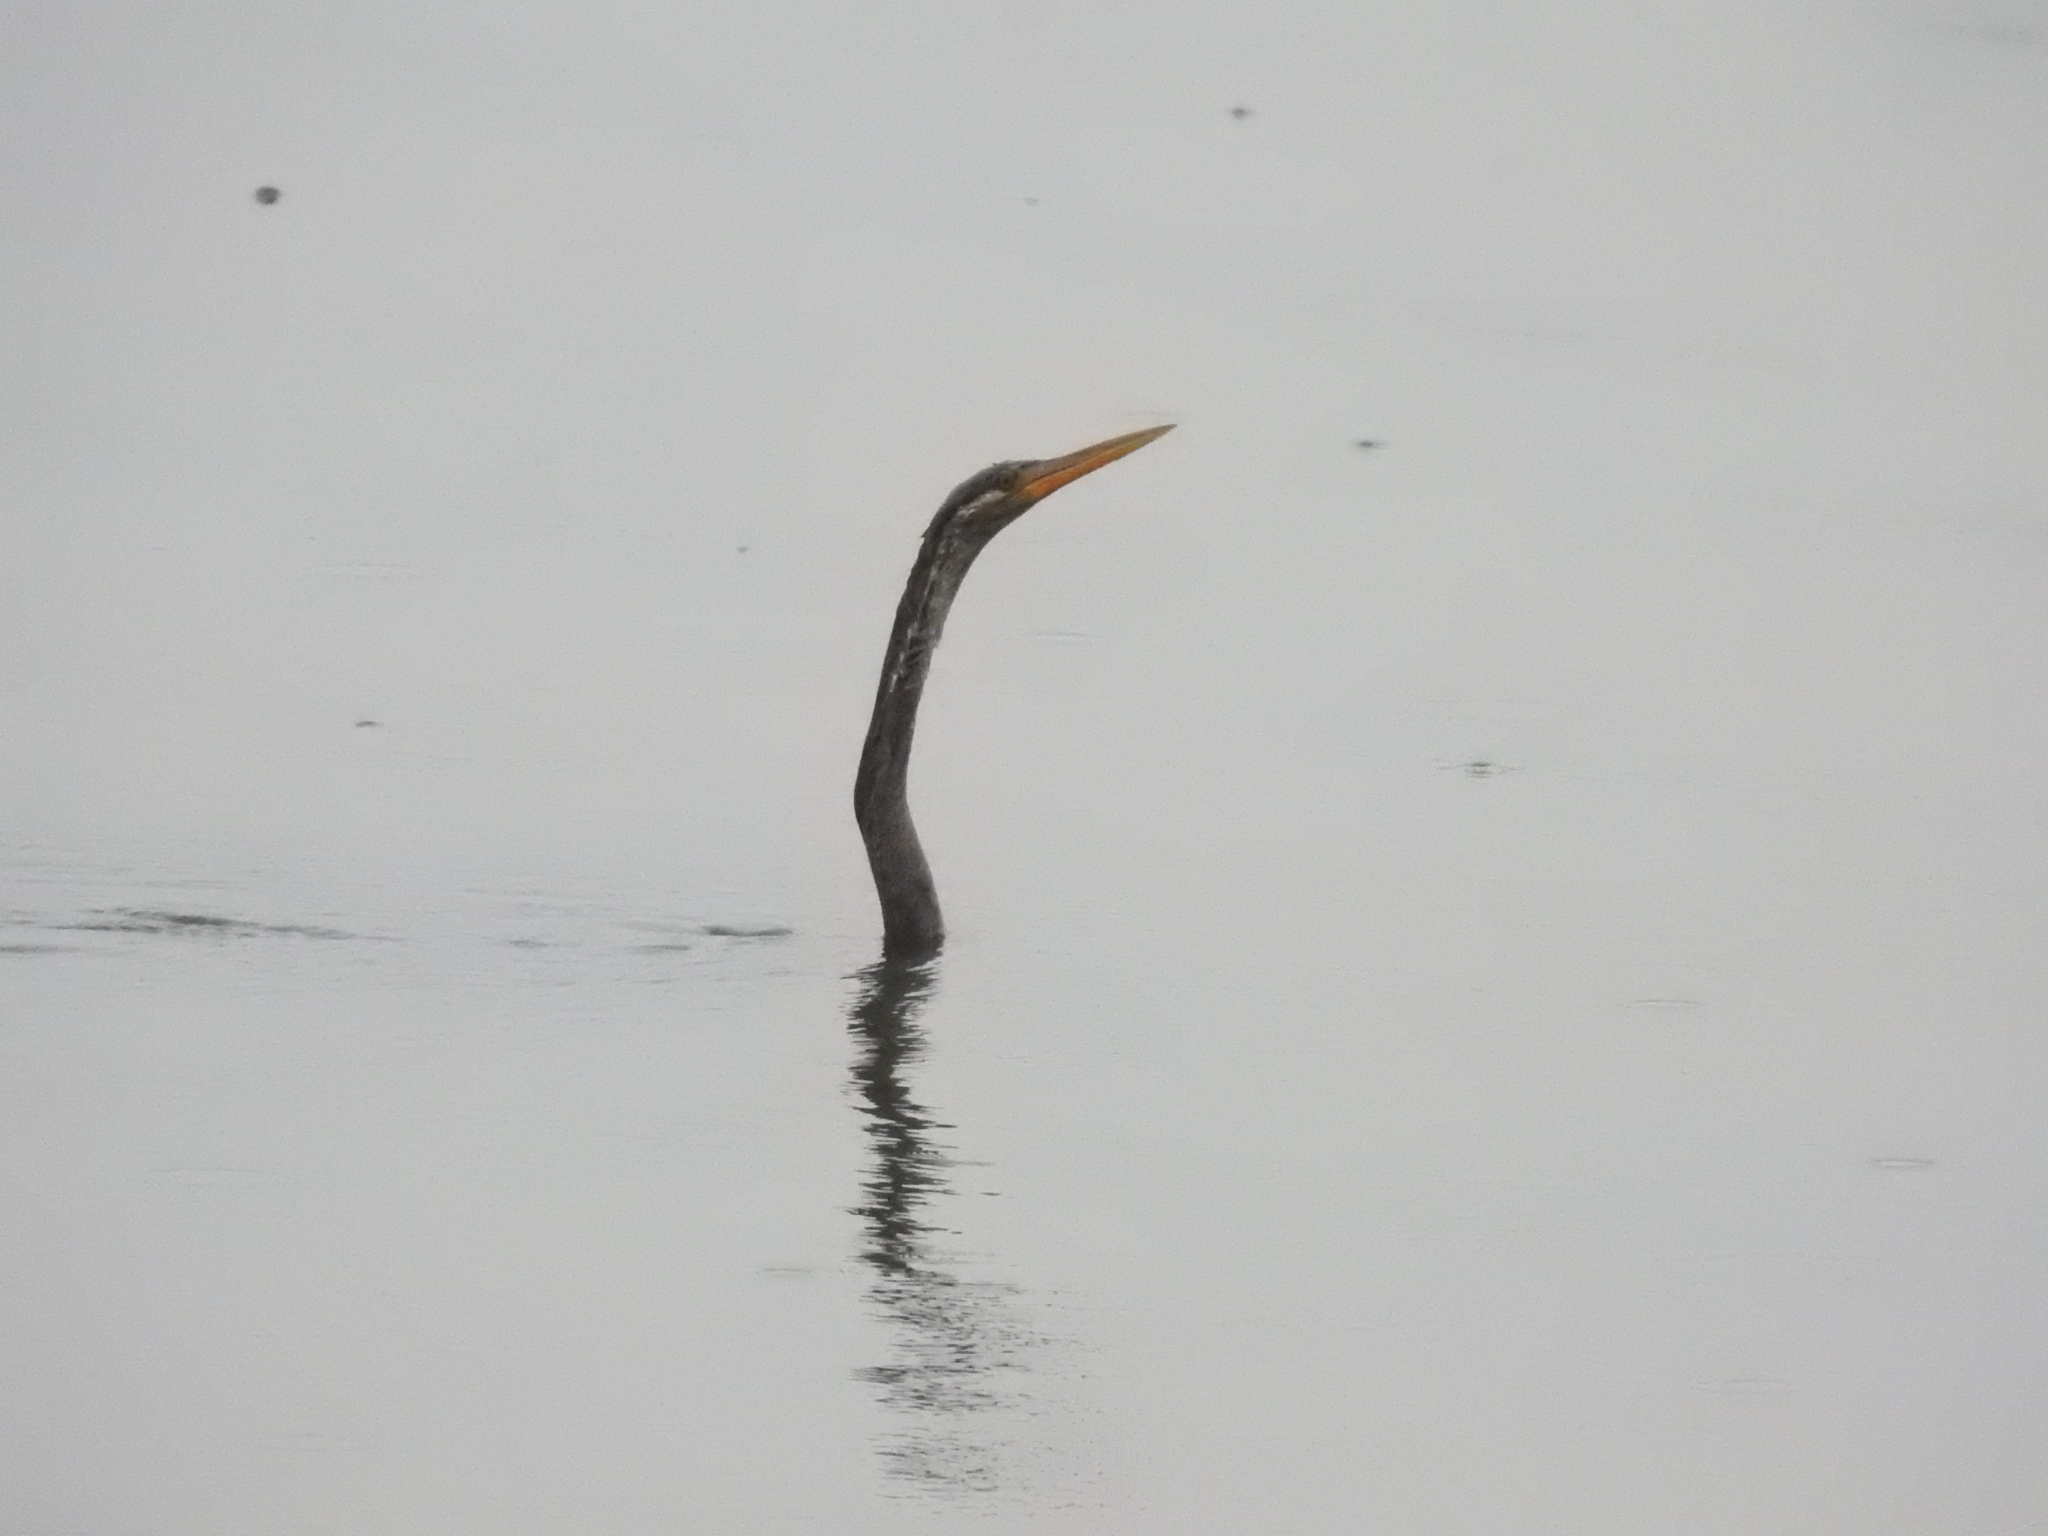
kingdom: Animalia
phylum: Chordata
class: Aves
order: Suliformes
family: Anhingidae
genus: Anhinga
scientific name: Anhinga melanogaster
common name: Oriental darter
